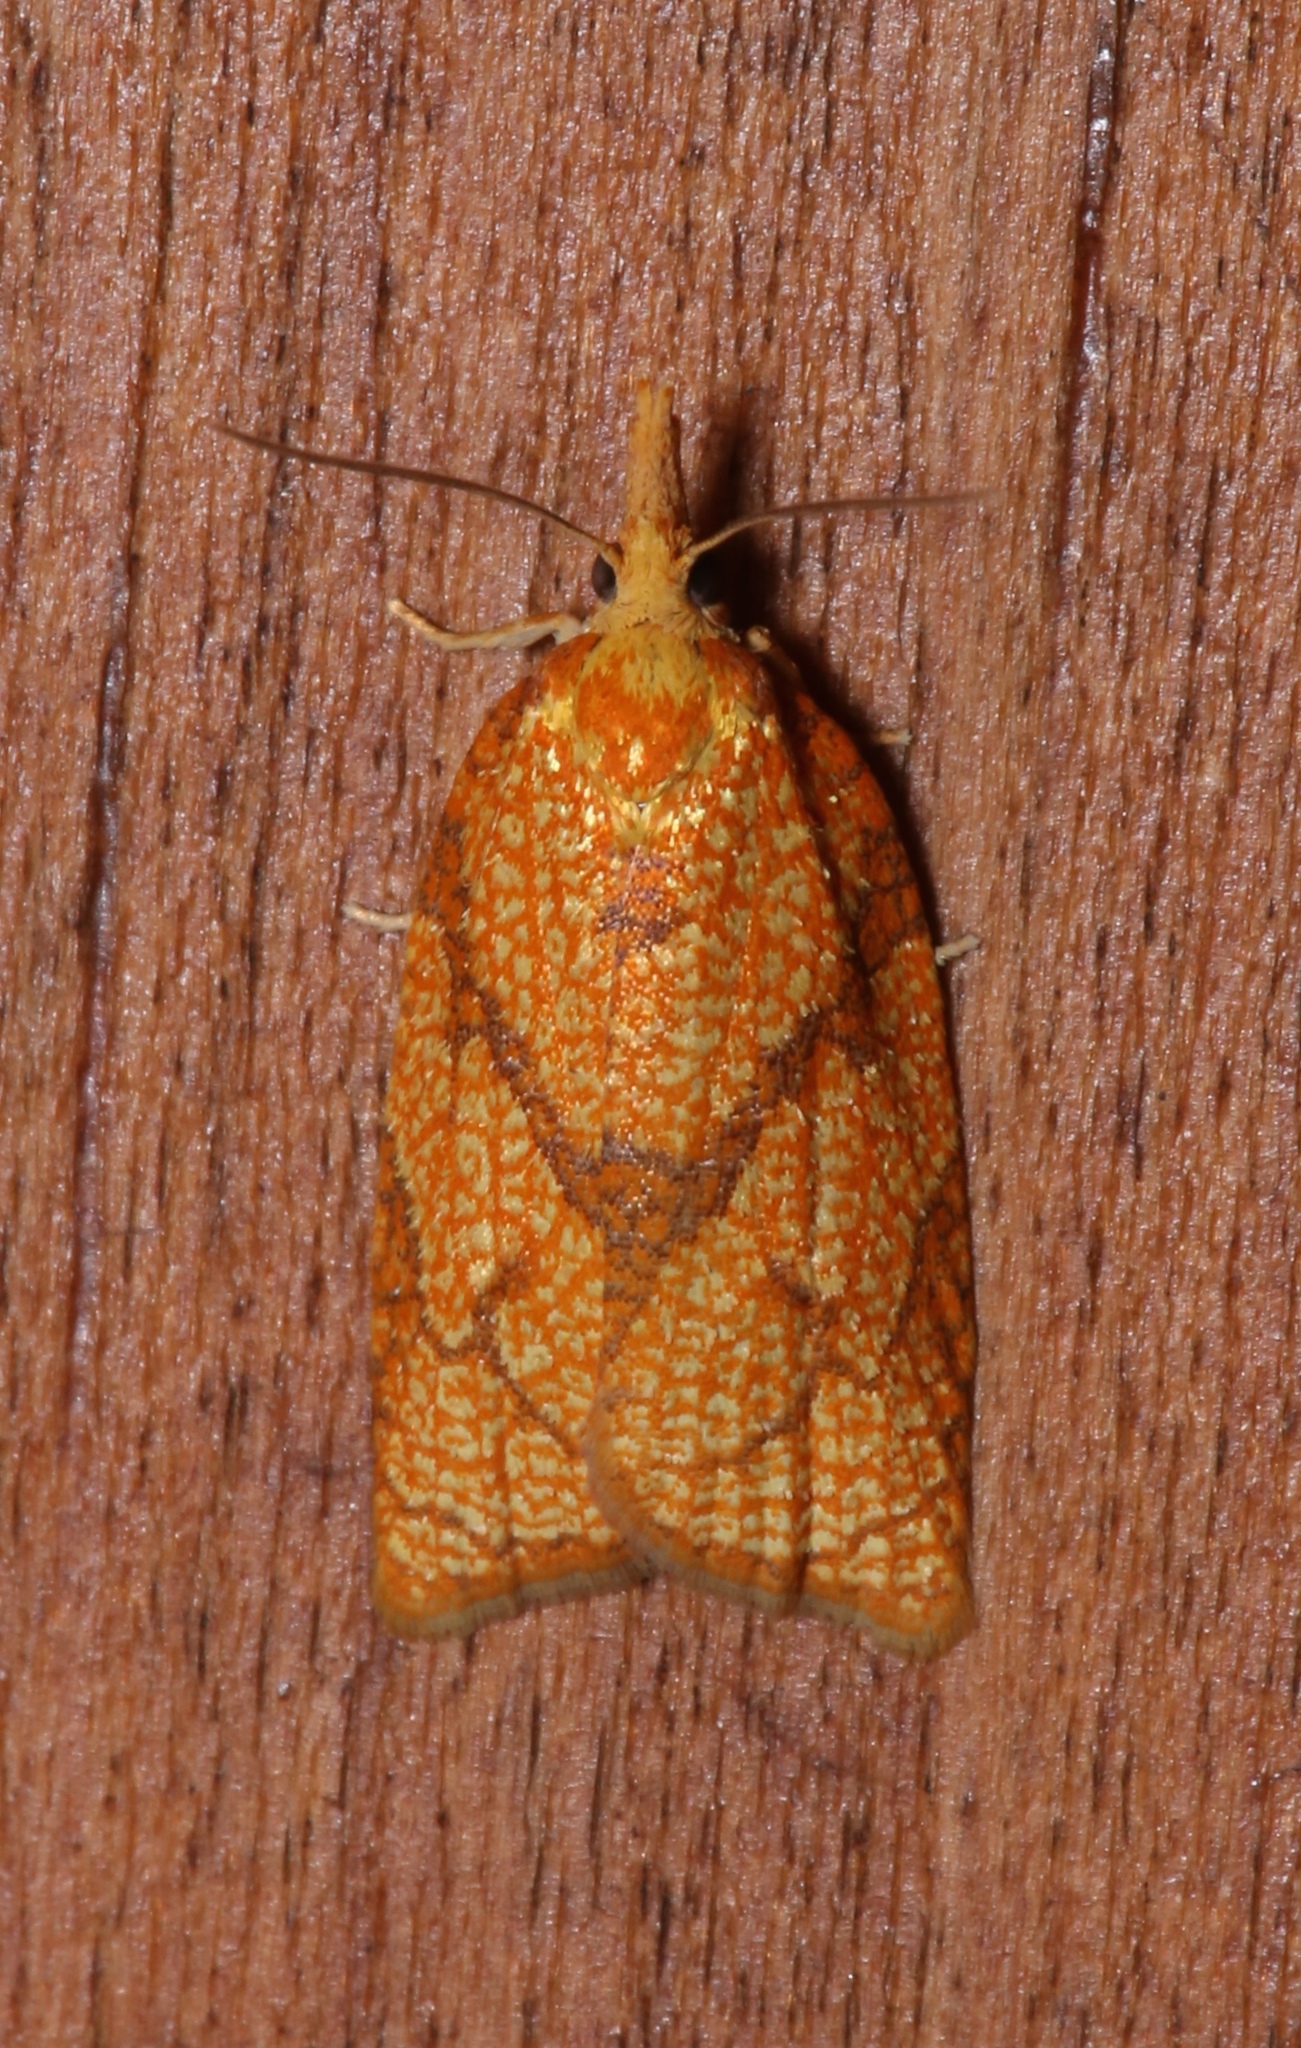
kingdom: Animalia
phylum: Arthropoda
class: Insecta
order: Lepidoptera
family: Tortricidae
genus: Cenopis
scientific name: Cenopis reticulatana
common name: Reticulated fruitworm moth
